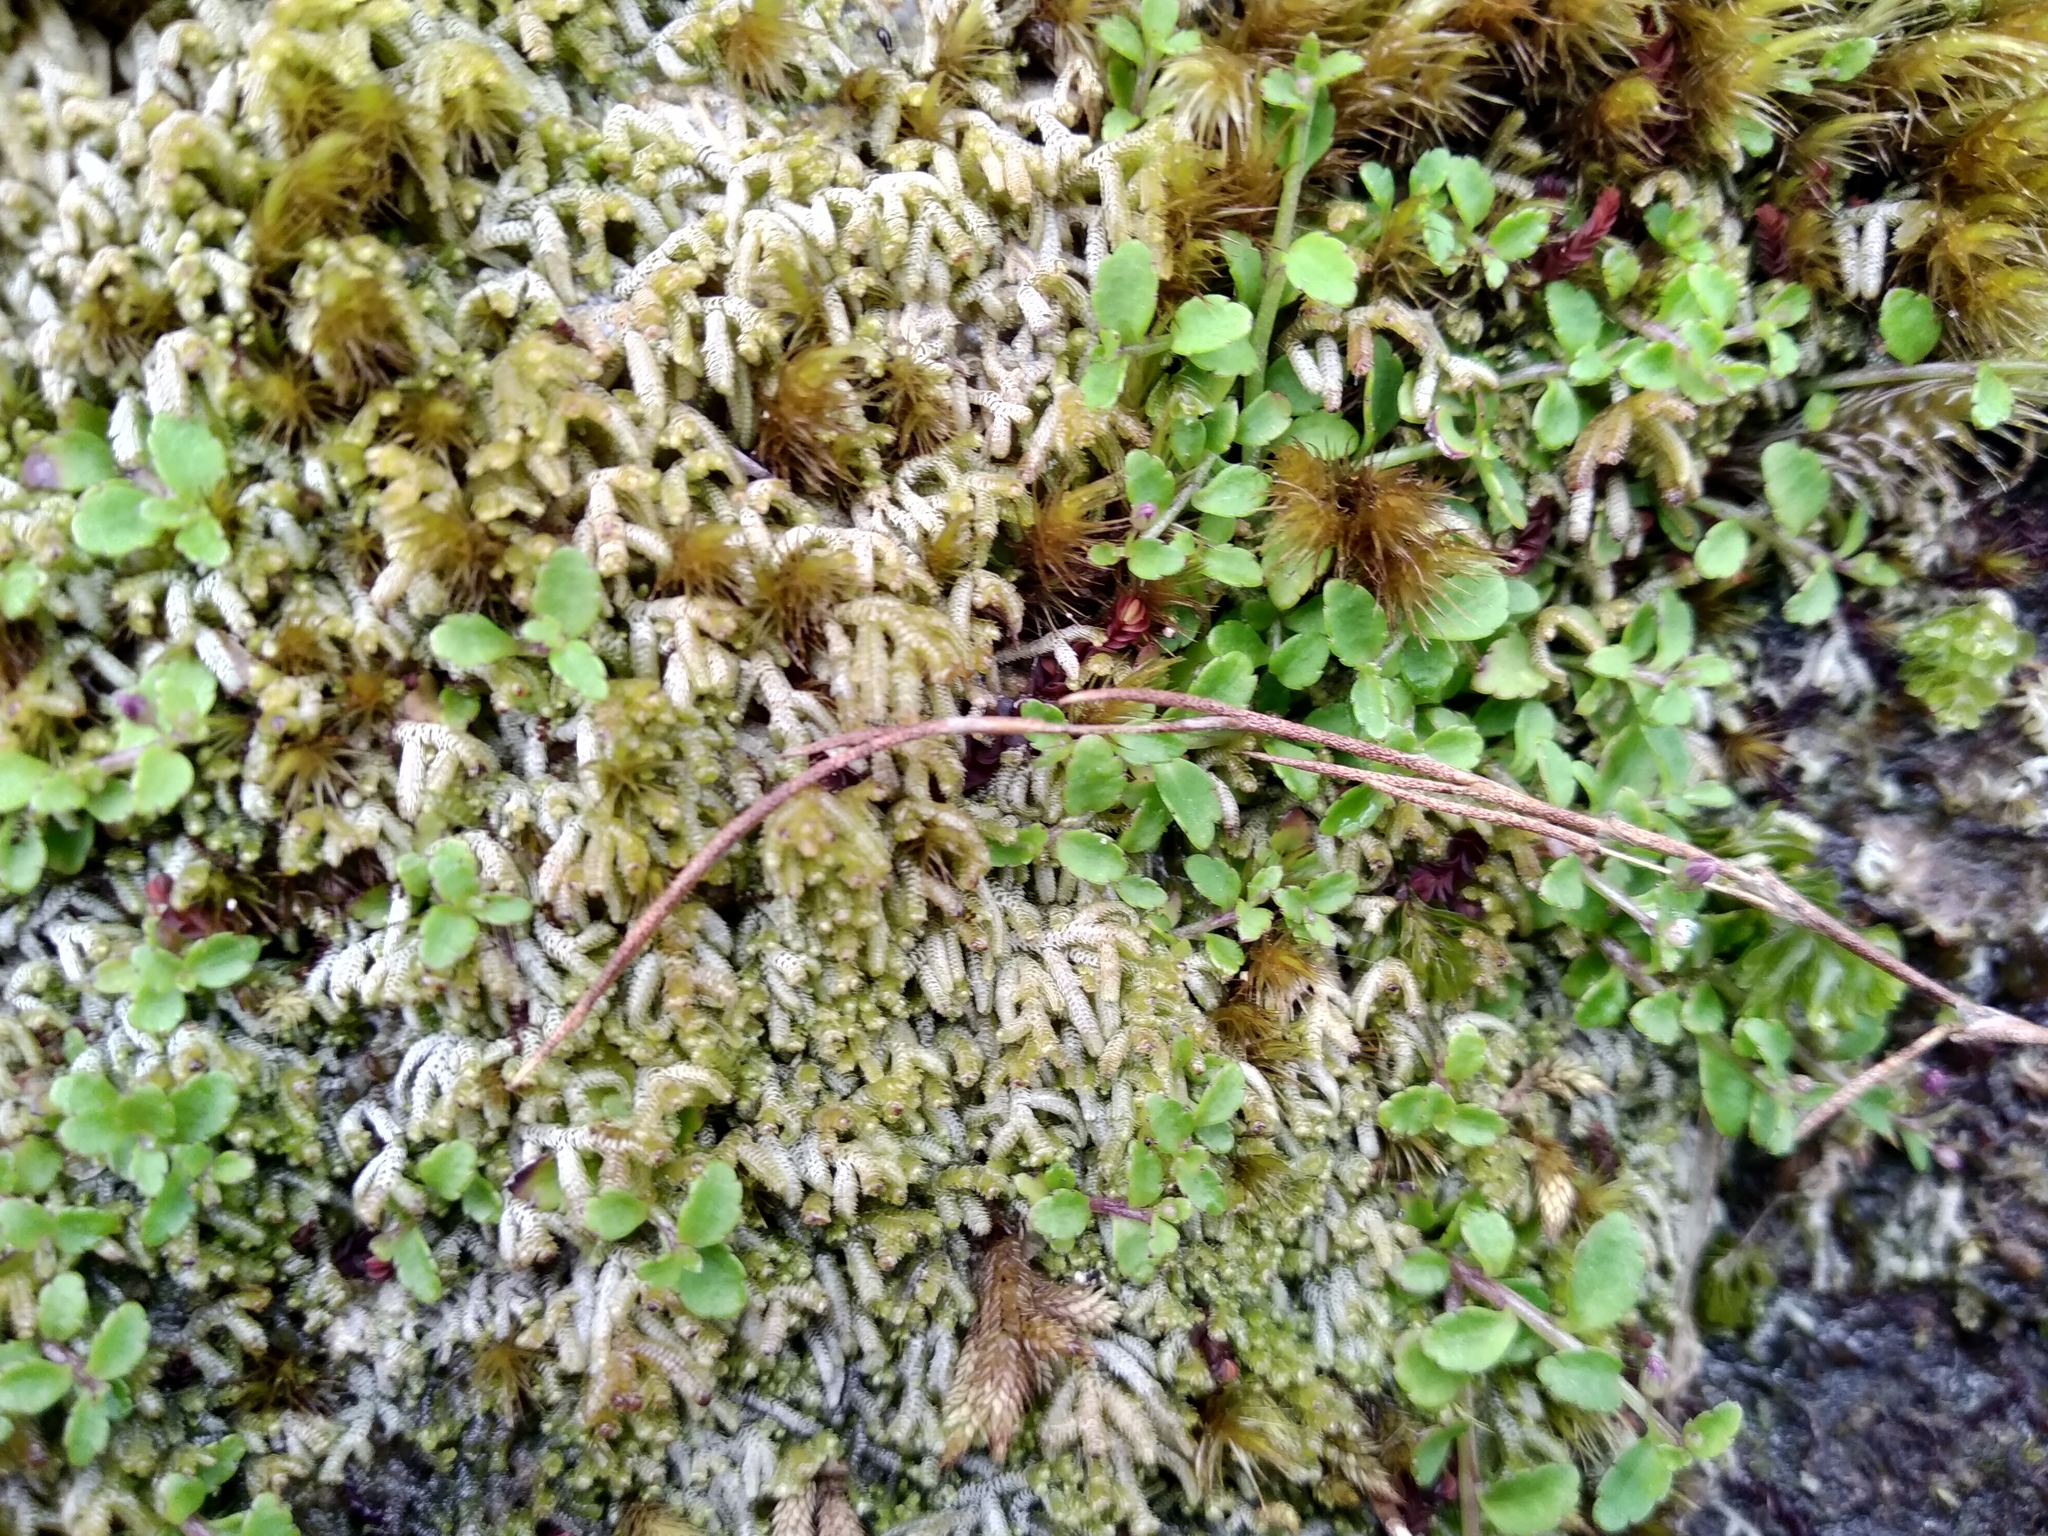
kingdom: Plantae
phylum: Tracheophyta
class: Magnoliopsida
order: Asterales
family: Campanulaceae
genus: Unigenes
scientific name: Unigenes humifusa
